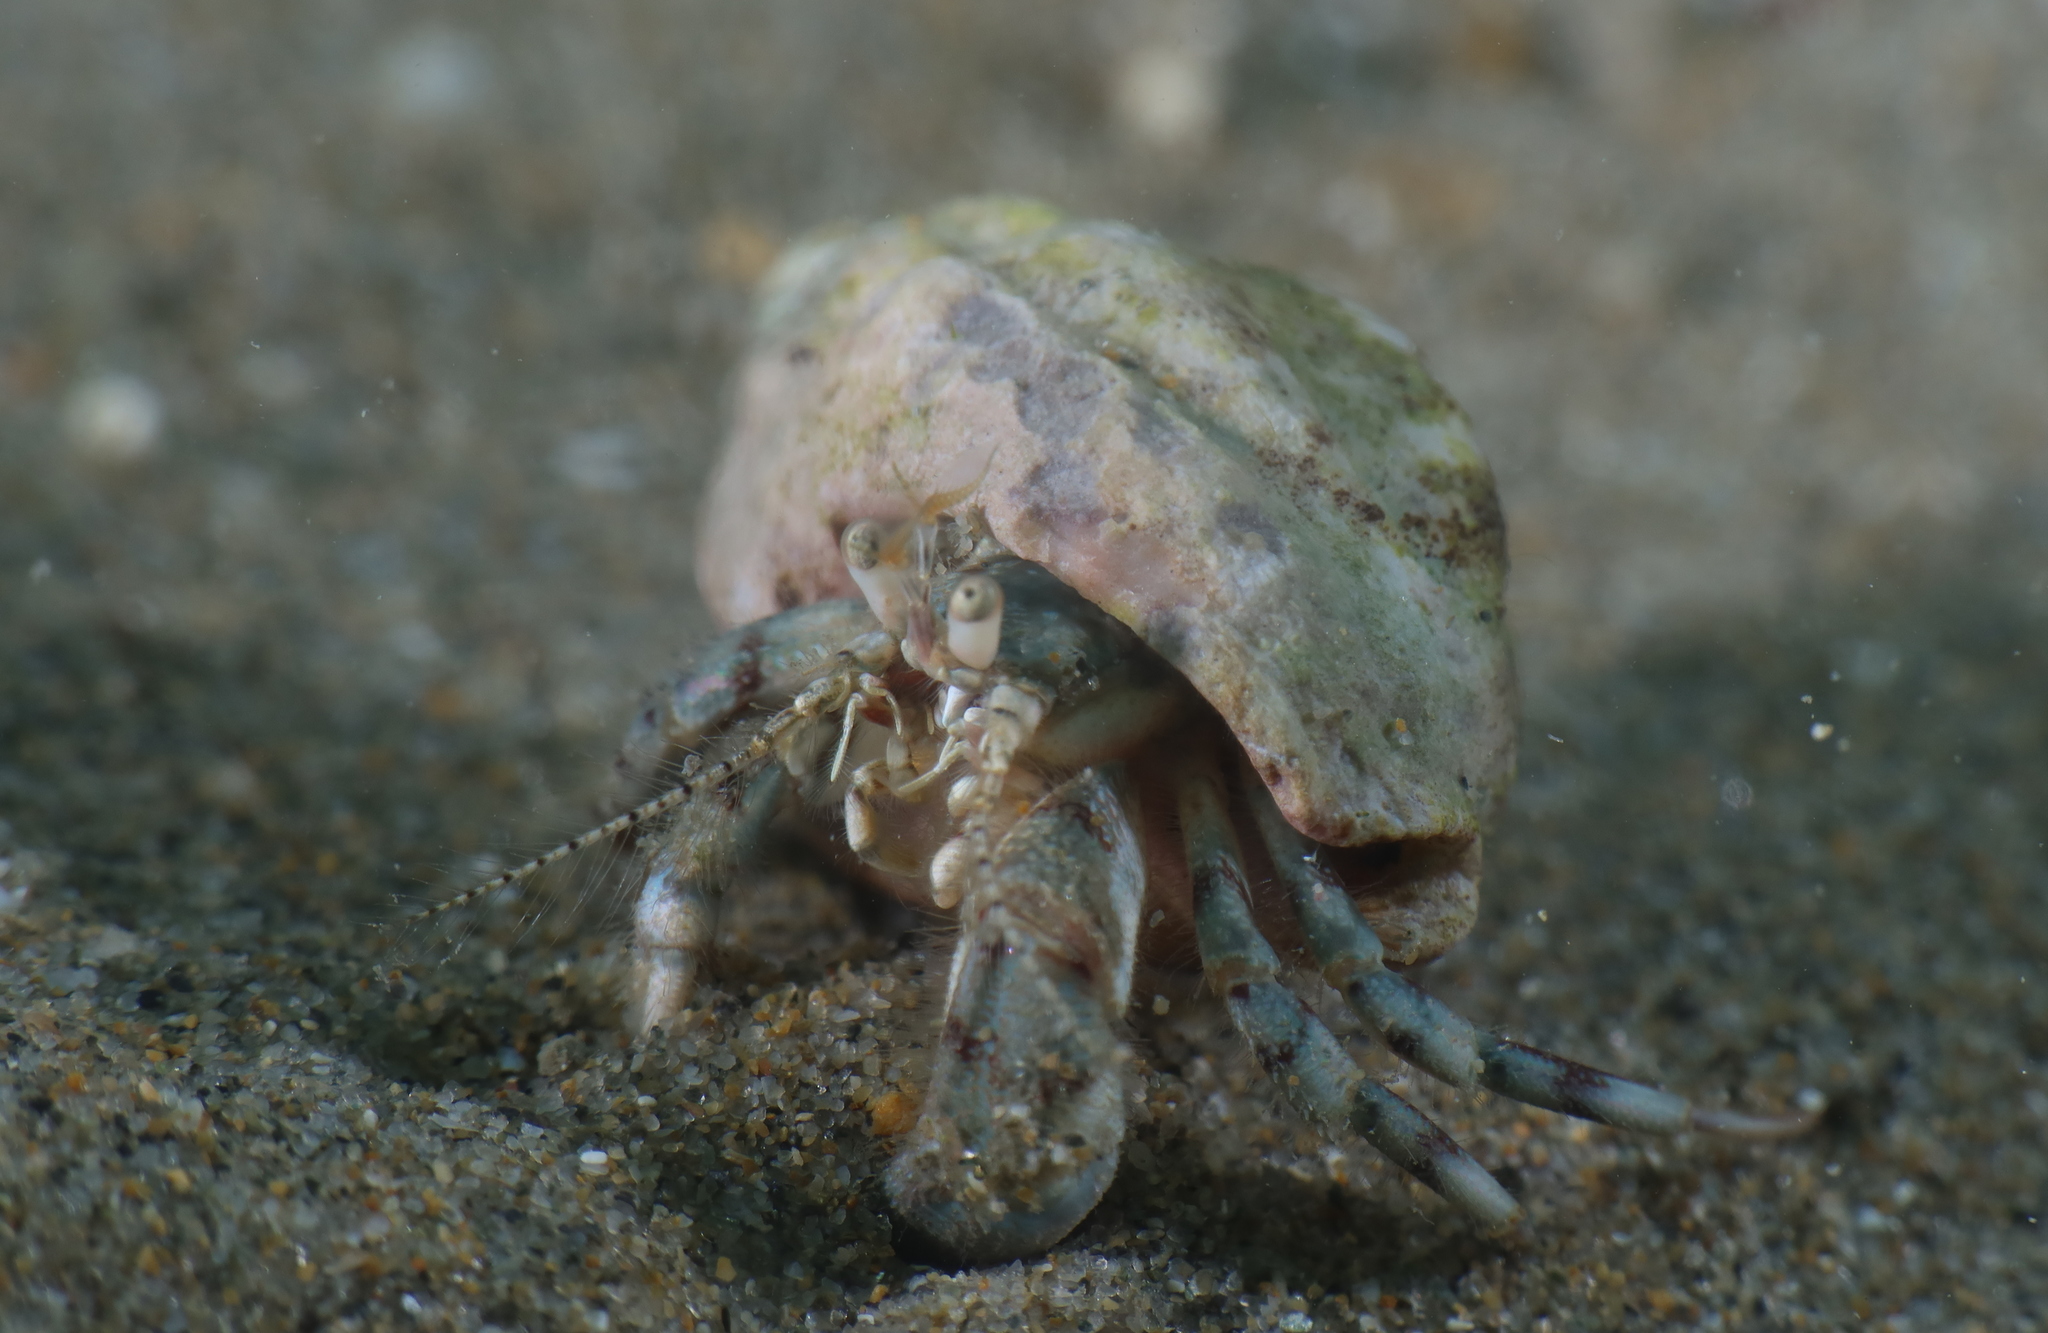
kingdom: Animalia
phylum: Arthropoda
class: Malacostraca
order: Decapoda
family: Diogenidae
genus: Diogenes
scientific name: Diogenes pugilator
